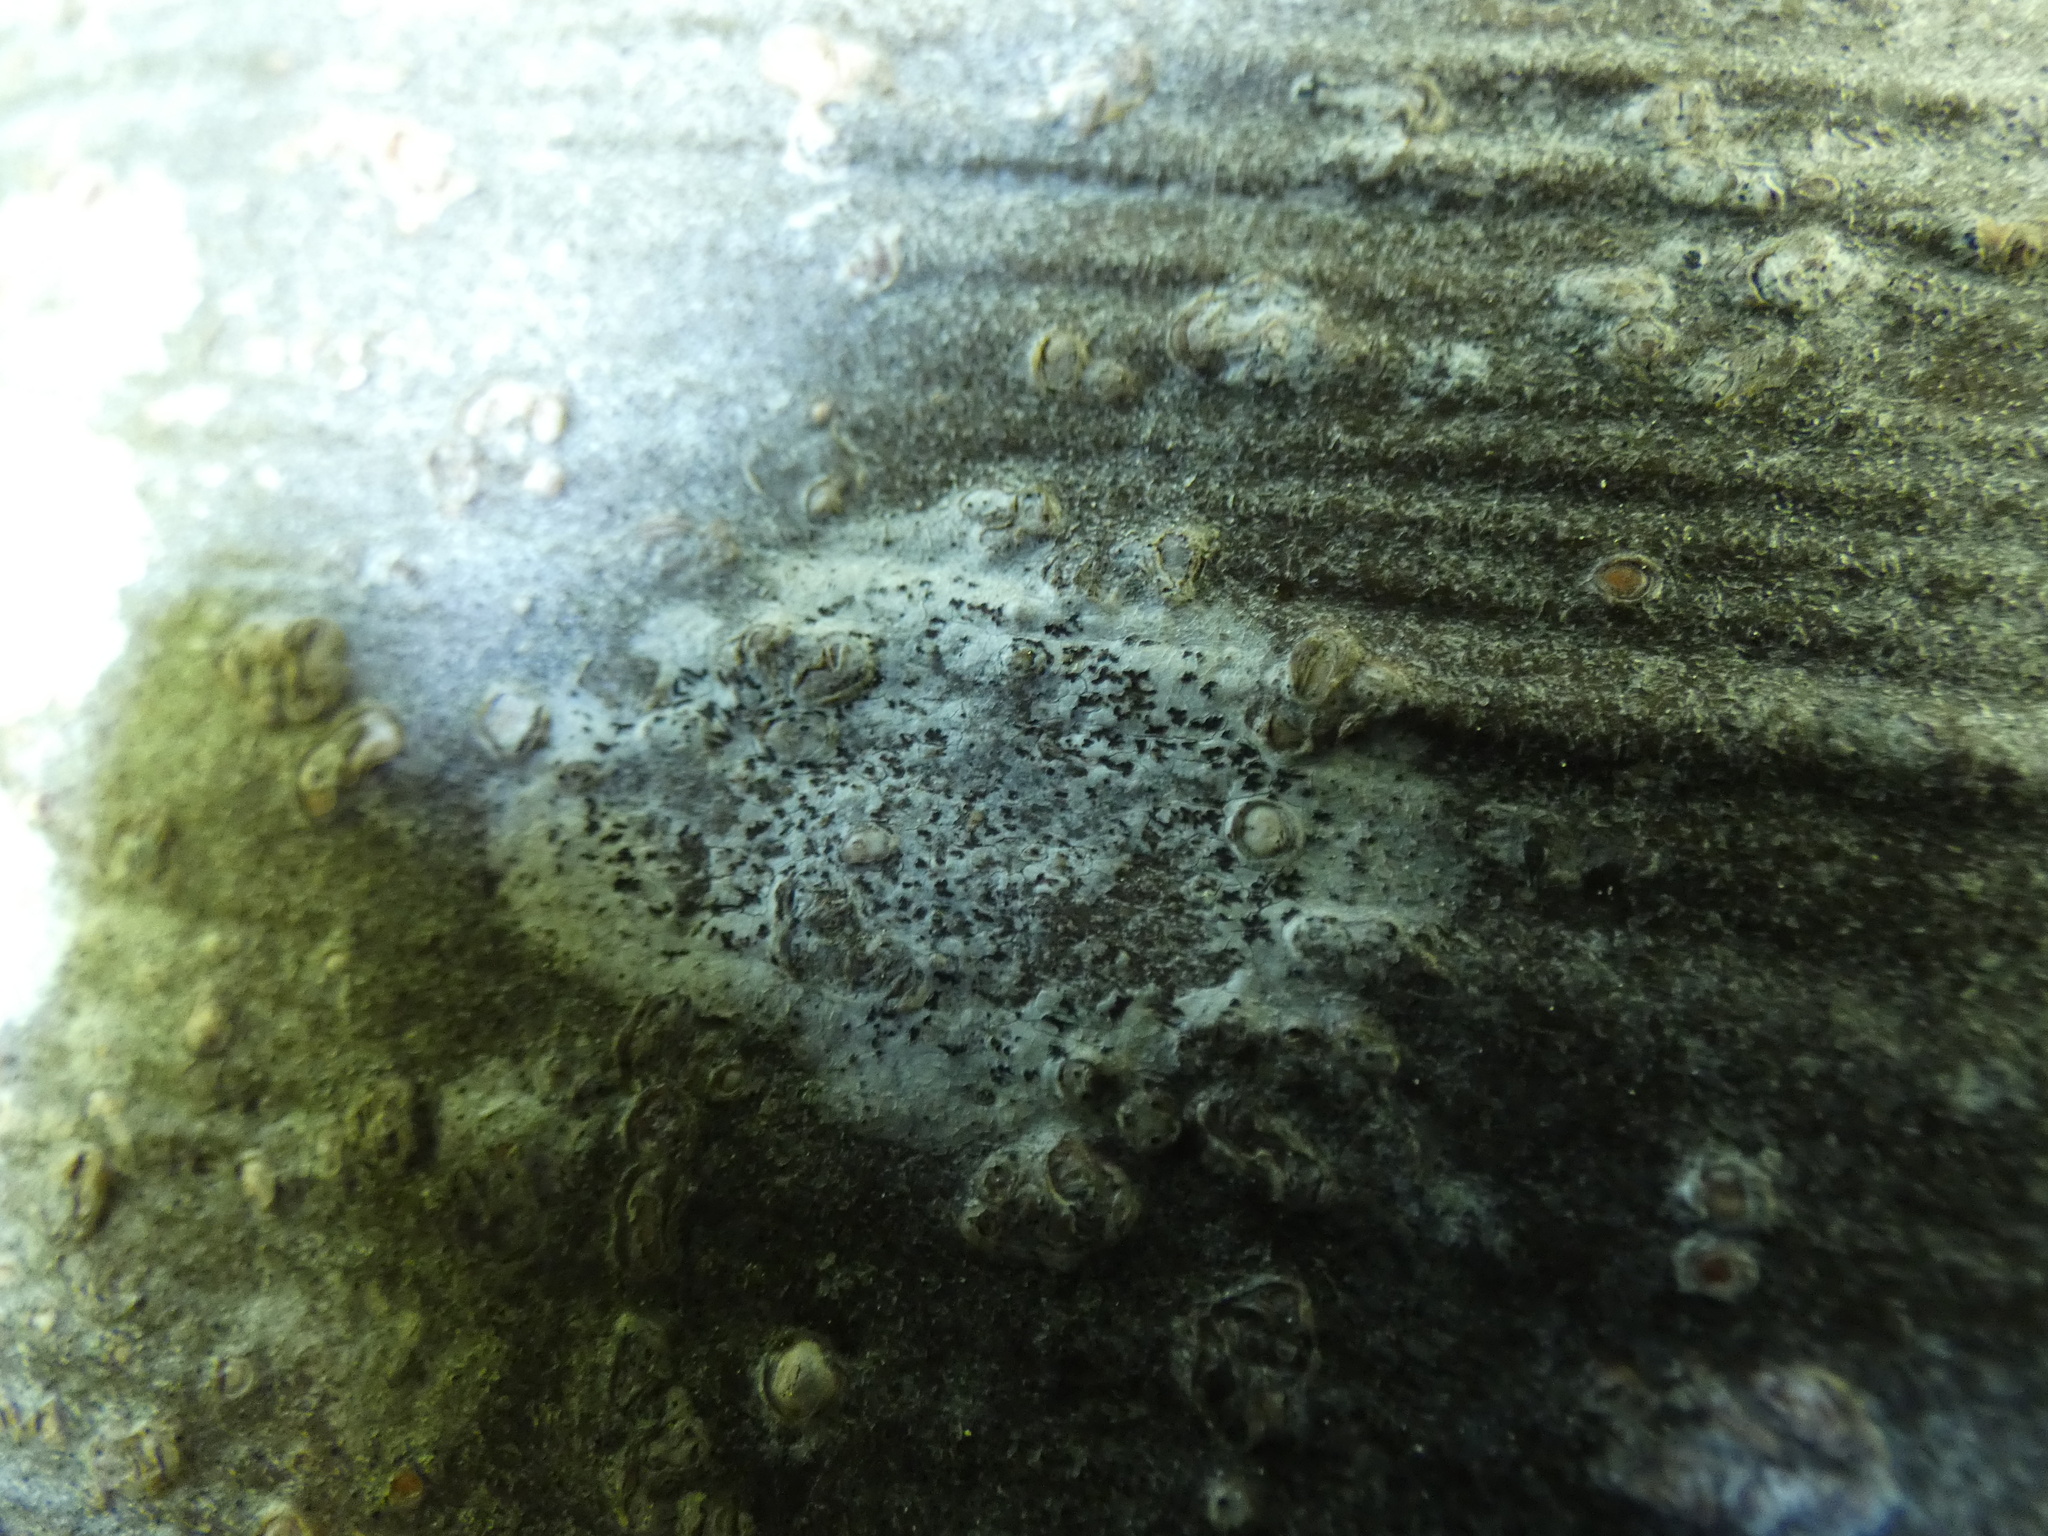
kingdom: Fungi
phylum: Ascomycota
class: Arthoniomycetes
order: Arthoniales
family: Arthoniaceae
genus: Arthonia
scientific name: Arthonia radiata
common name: Asterisk lichen
